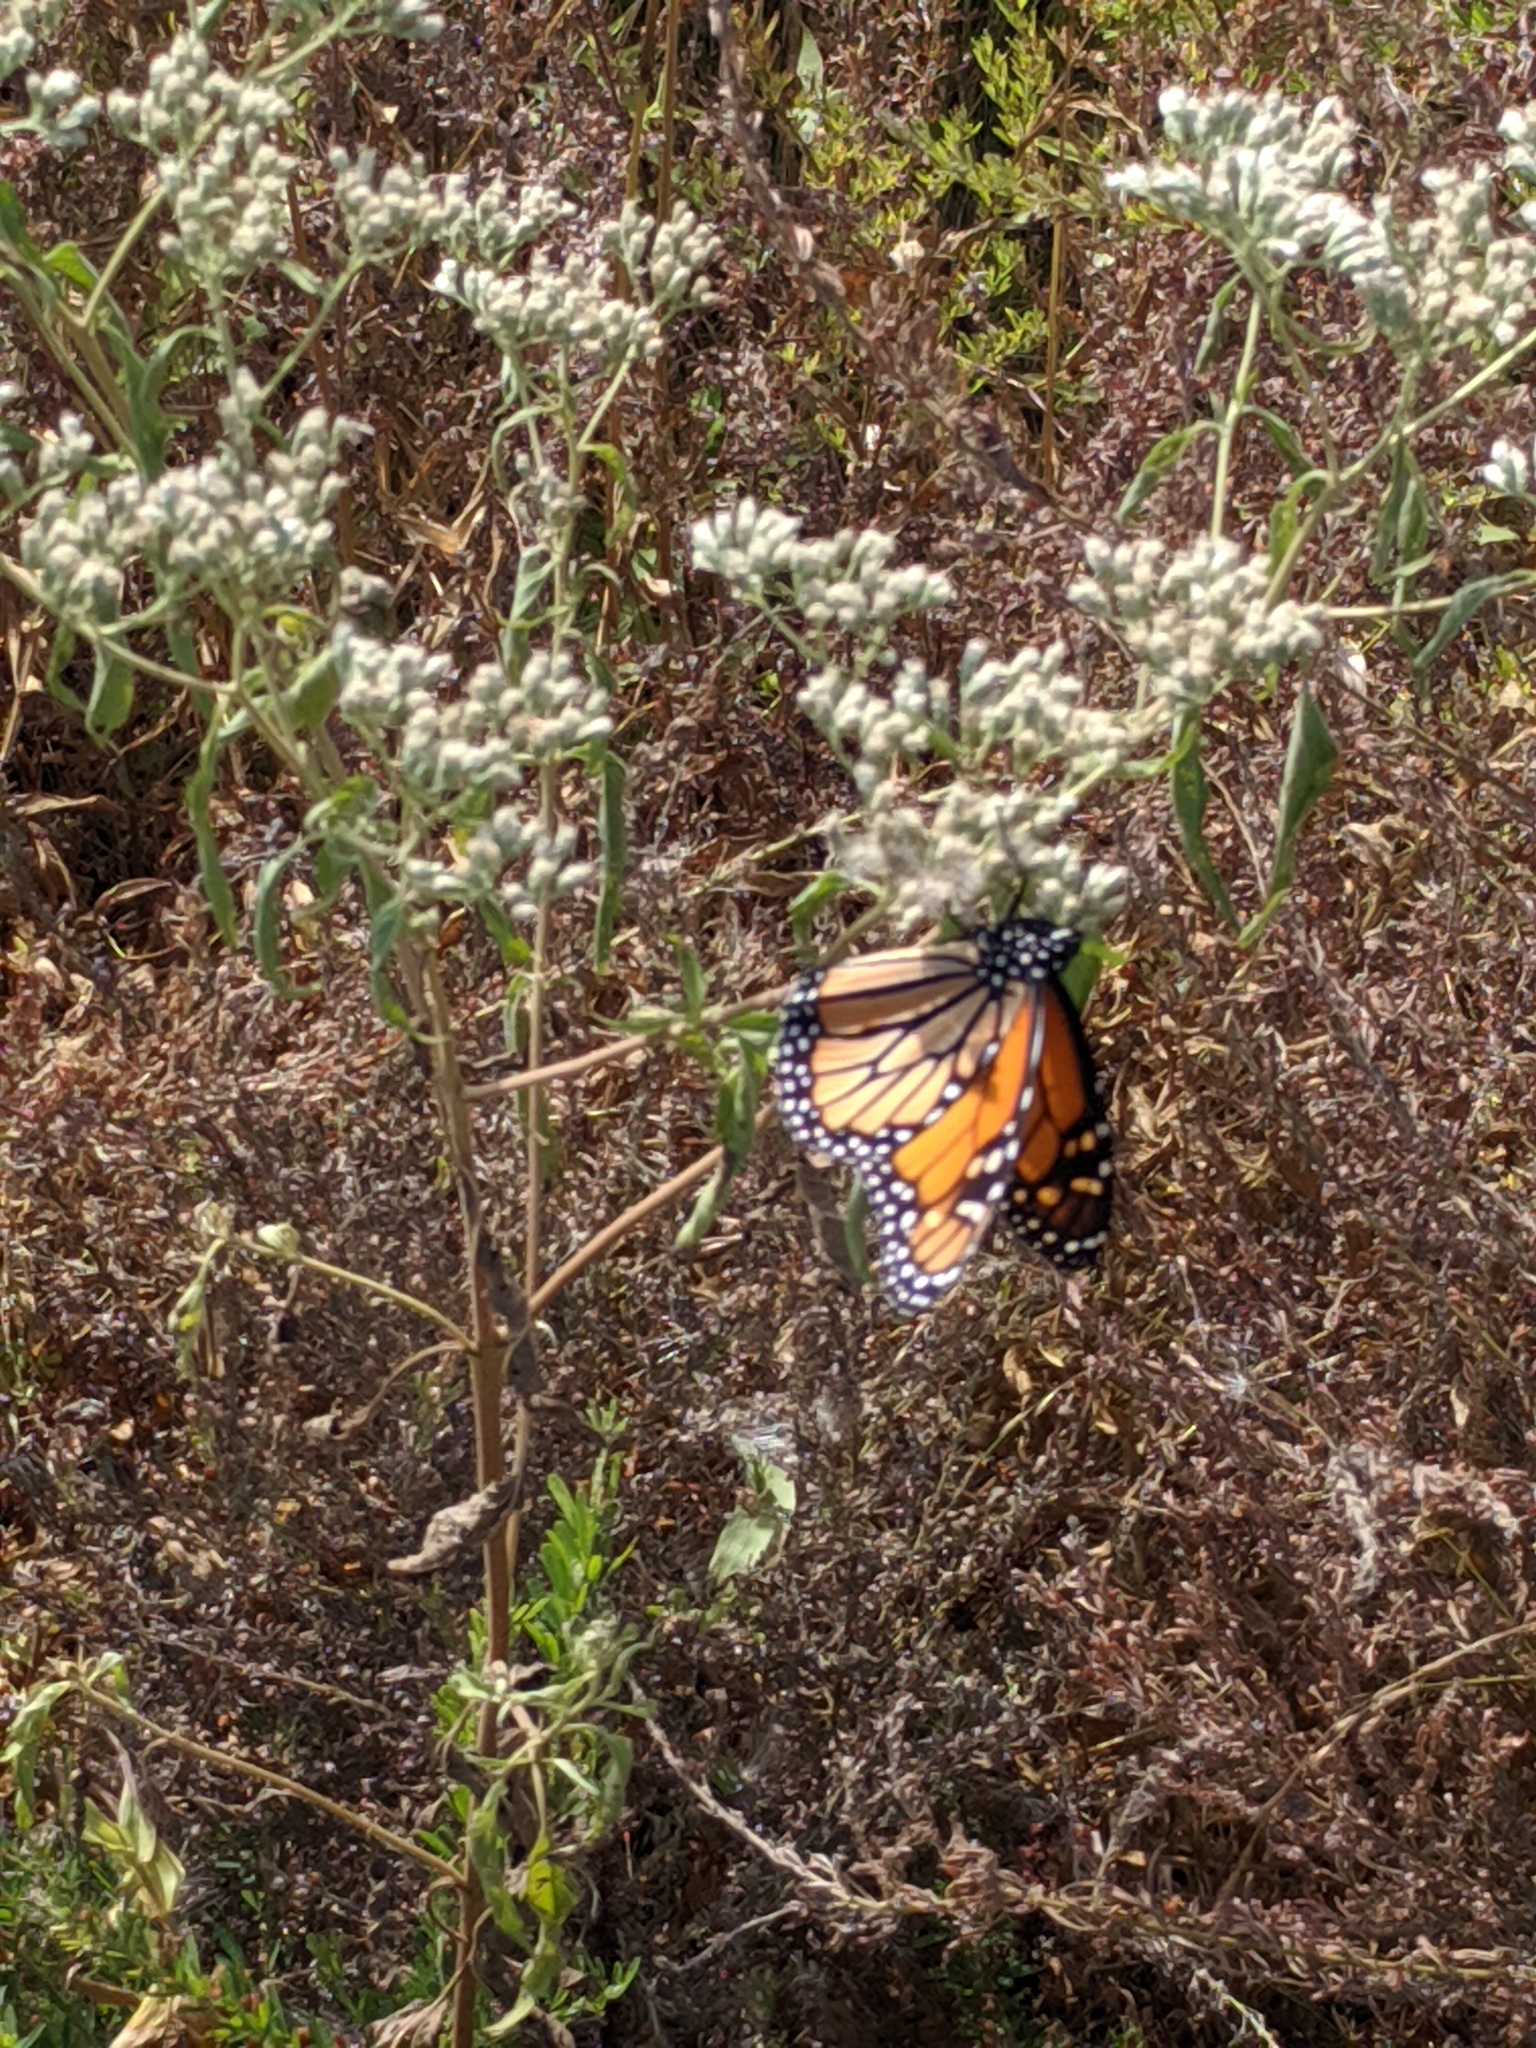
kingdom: Animalia
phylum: Arthropoda
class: Insecta
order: Lepidoptera
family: Nymphalidae
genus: Danaus
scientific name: Danaus plexippus
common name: Monarch
